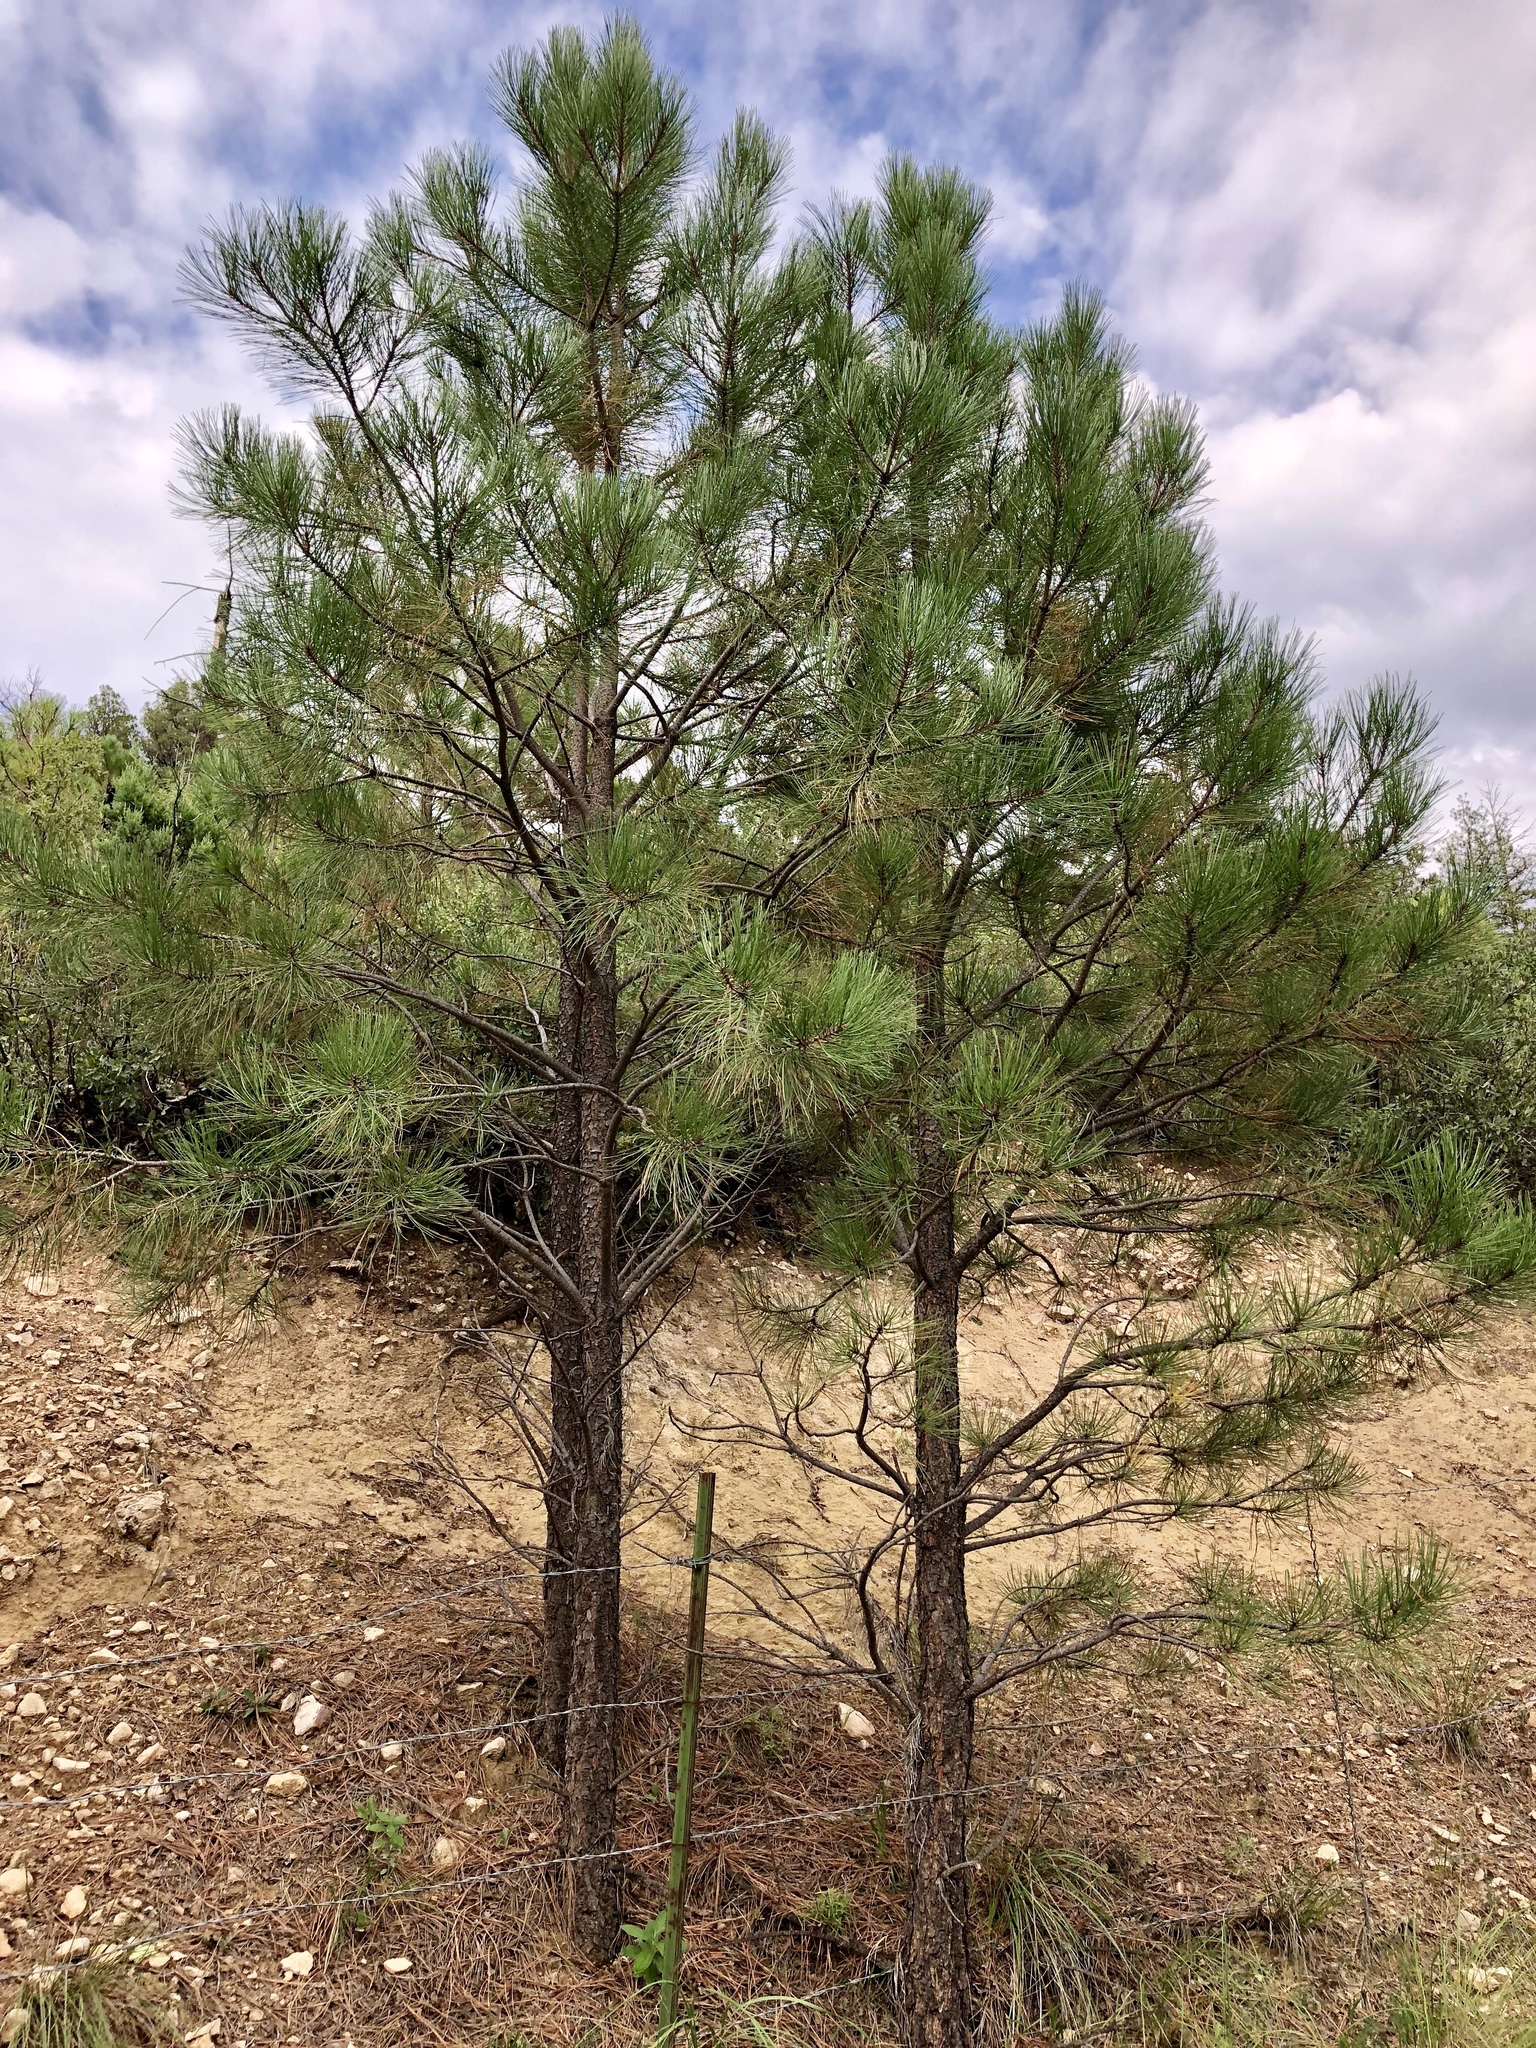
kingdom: Plantae
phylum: Tracheophyta
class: Pinopsida
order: Pinales
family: Pinaceae
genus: Pinus
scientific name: Pinus ponderosa
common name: Western yellow-pine
